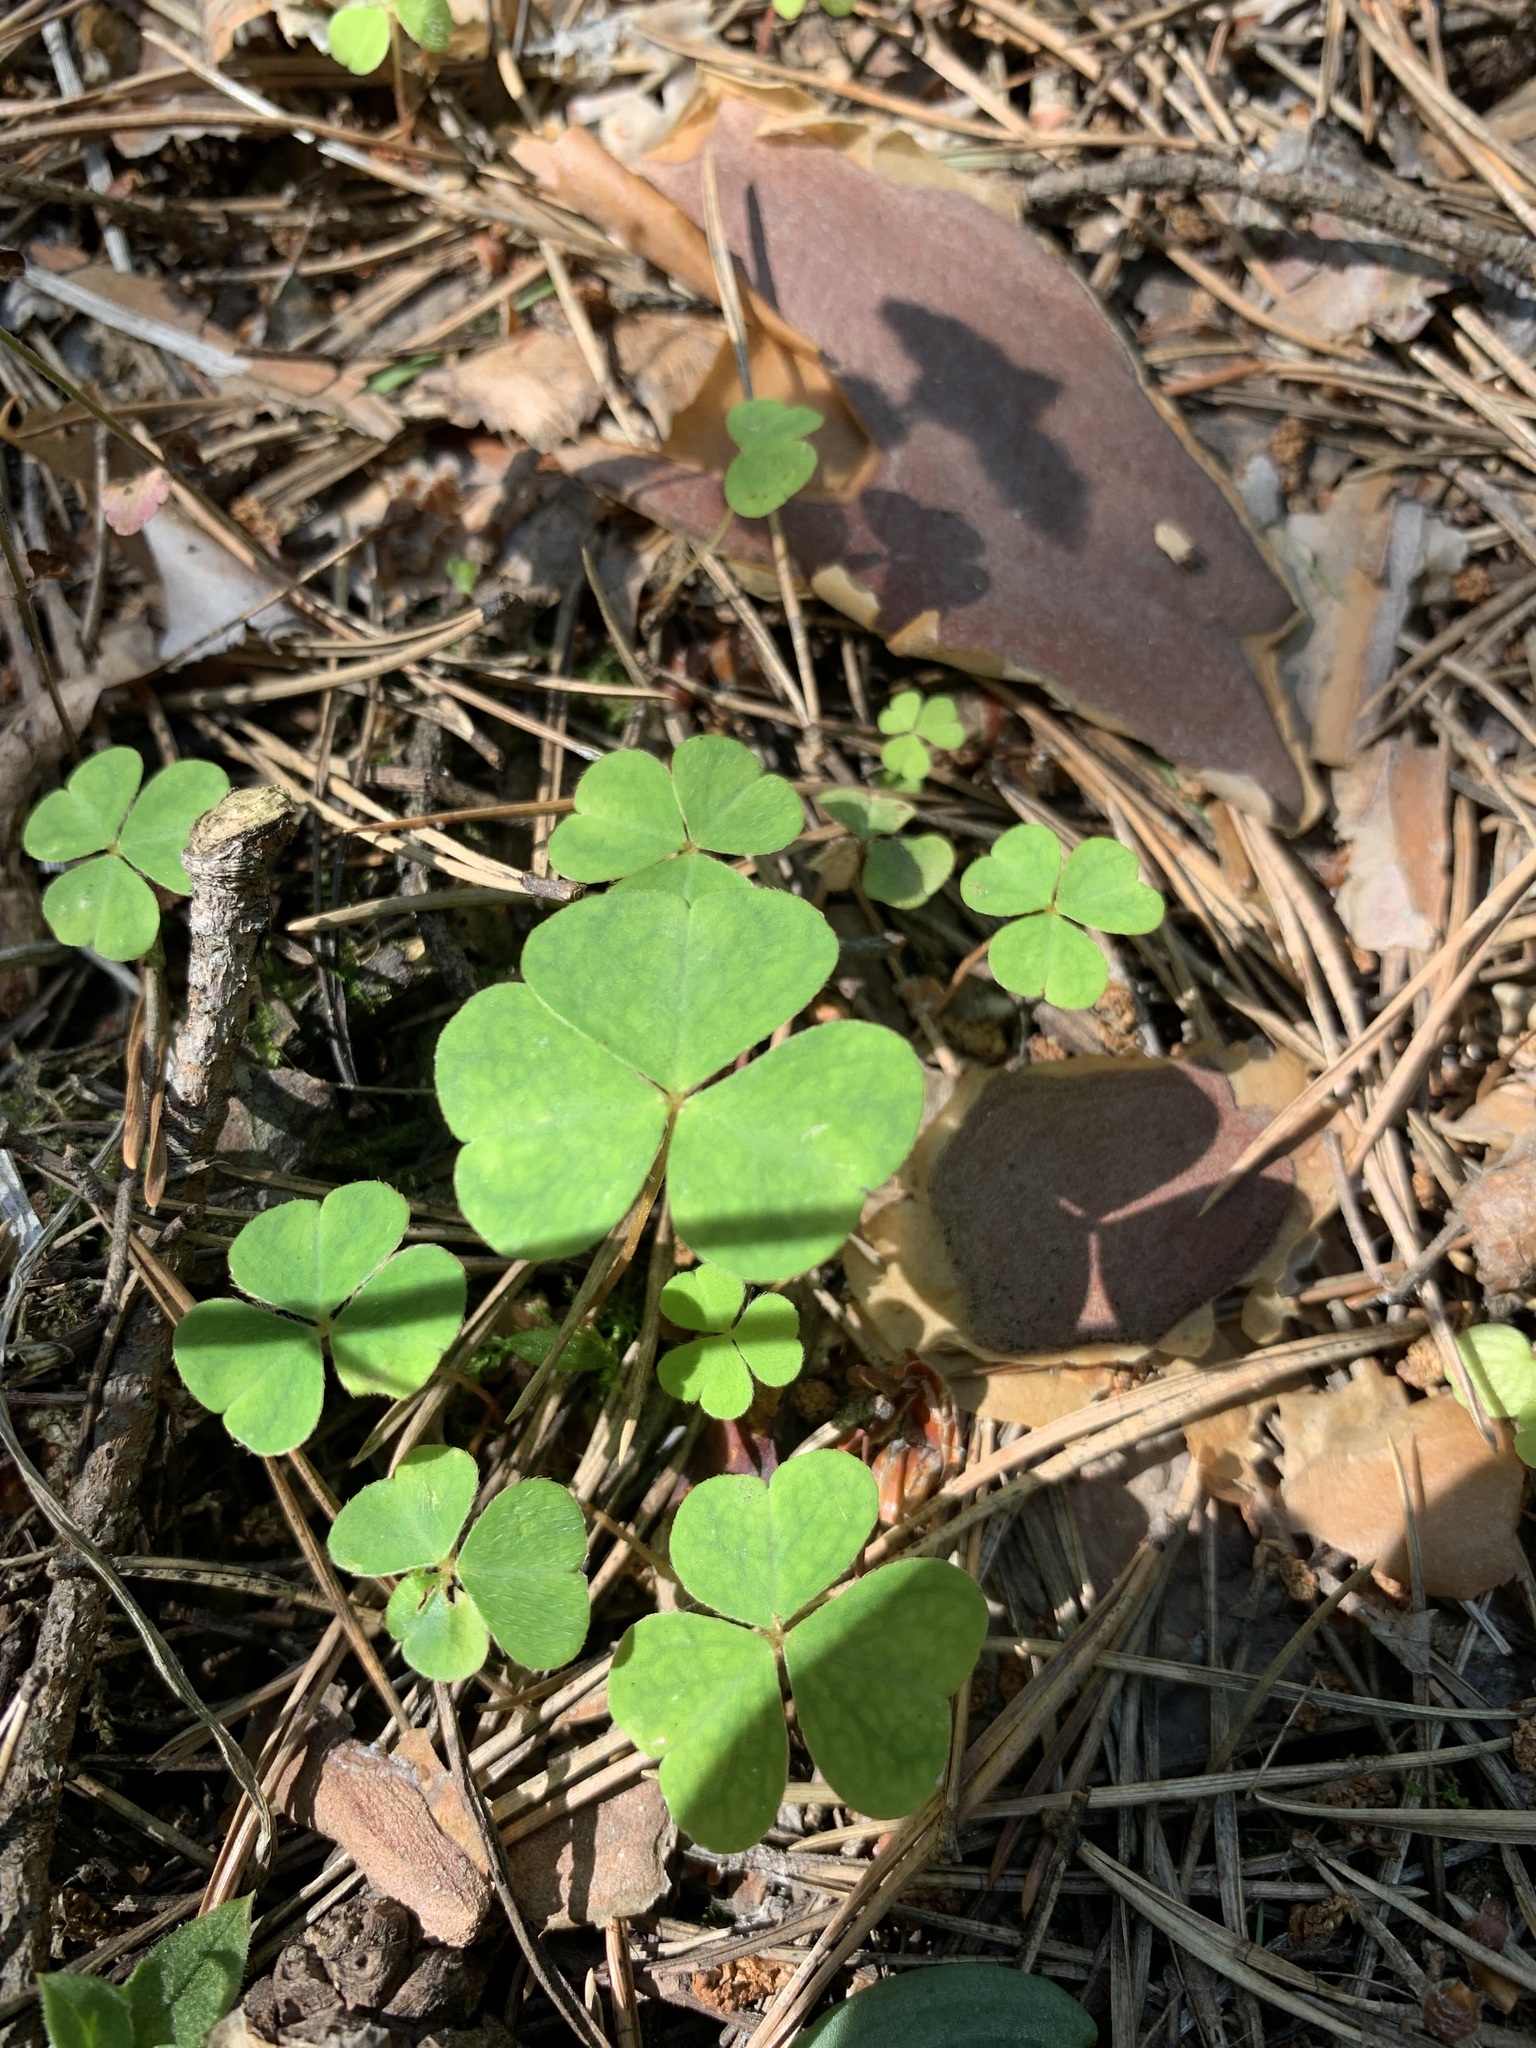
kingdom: Plantae
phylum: Tracheophyta
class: Magnoliopsida
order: Oxalidales
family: Oxalidaceae
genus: Oxalis
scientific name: Oxalis acetosella
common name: Wood-sorrel
